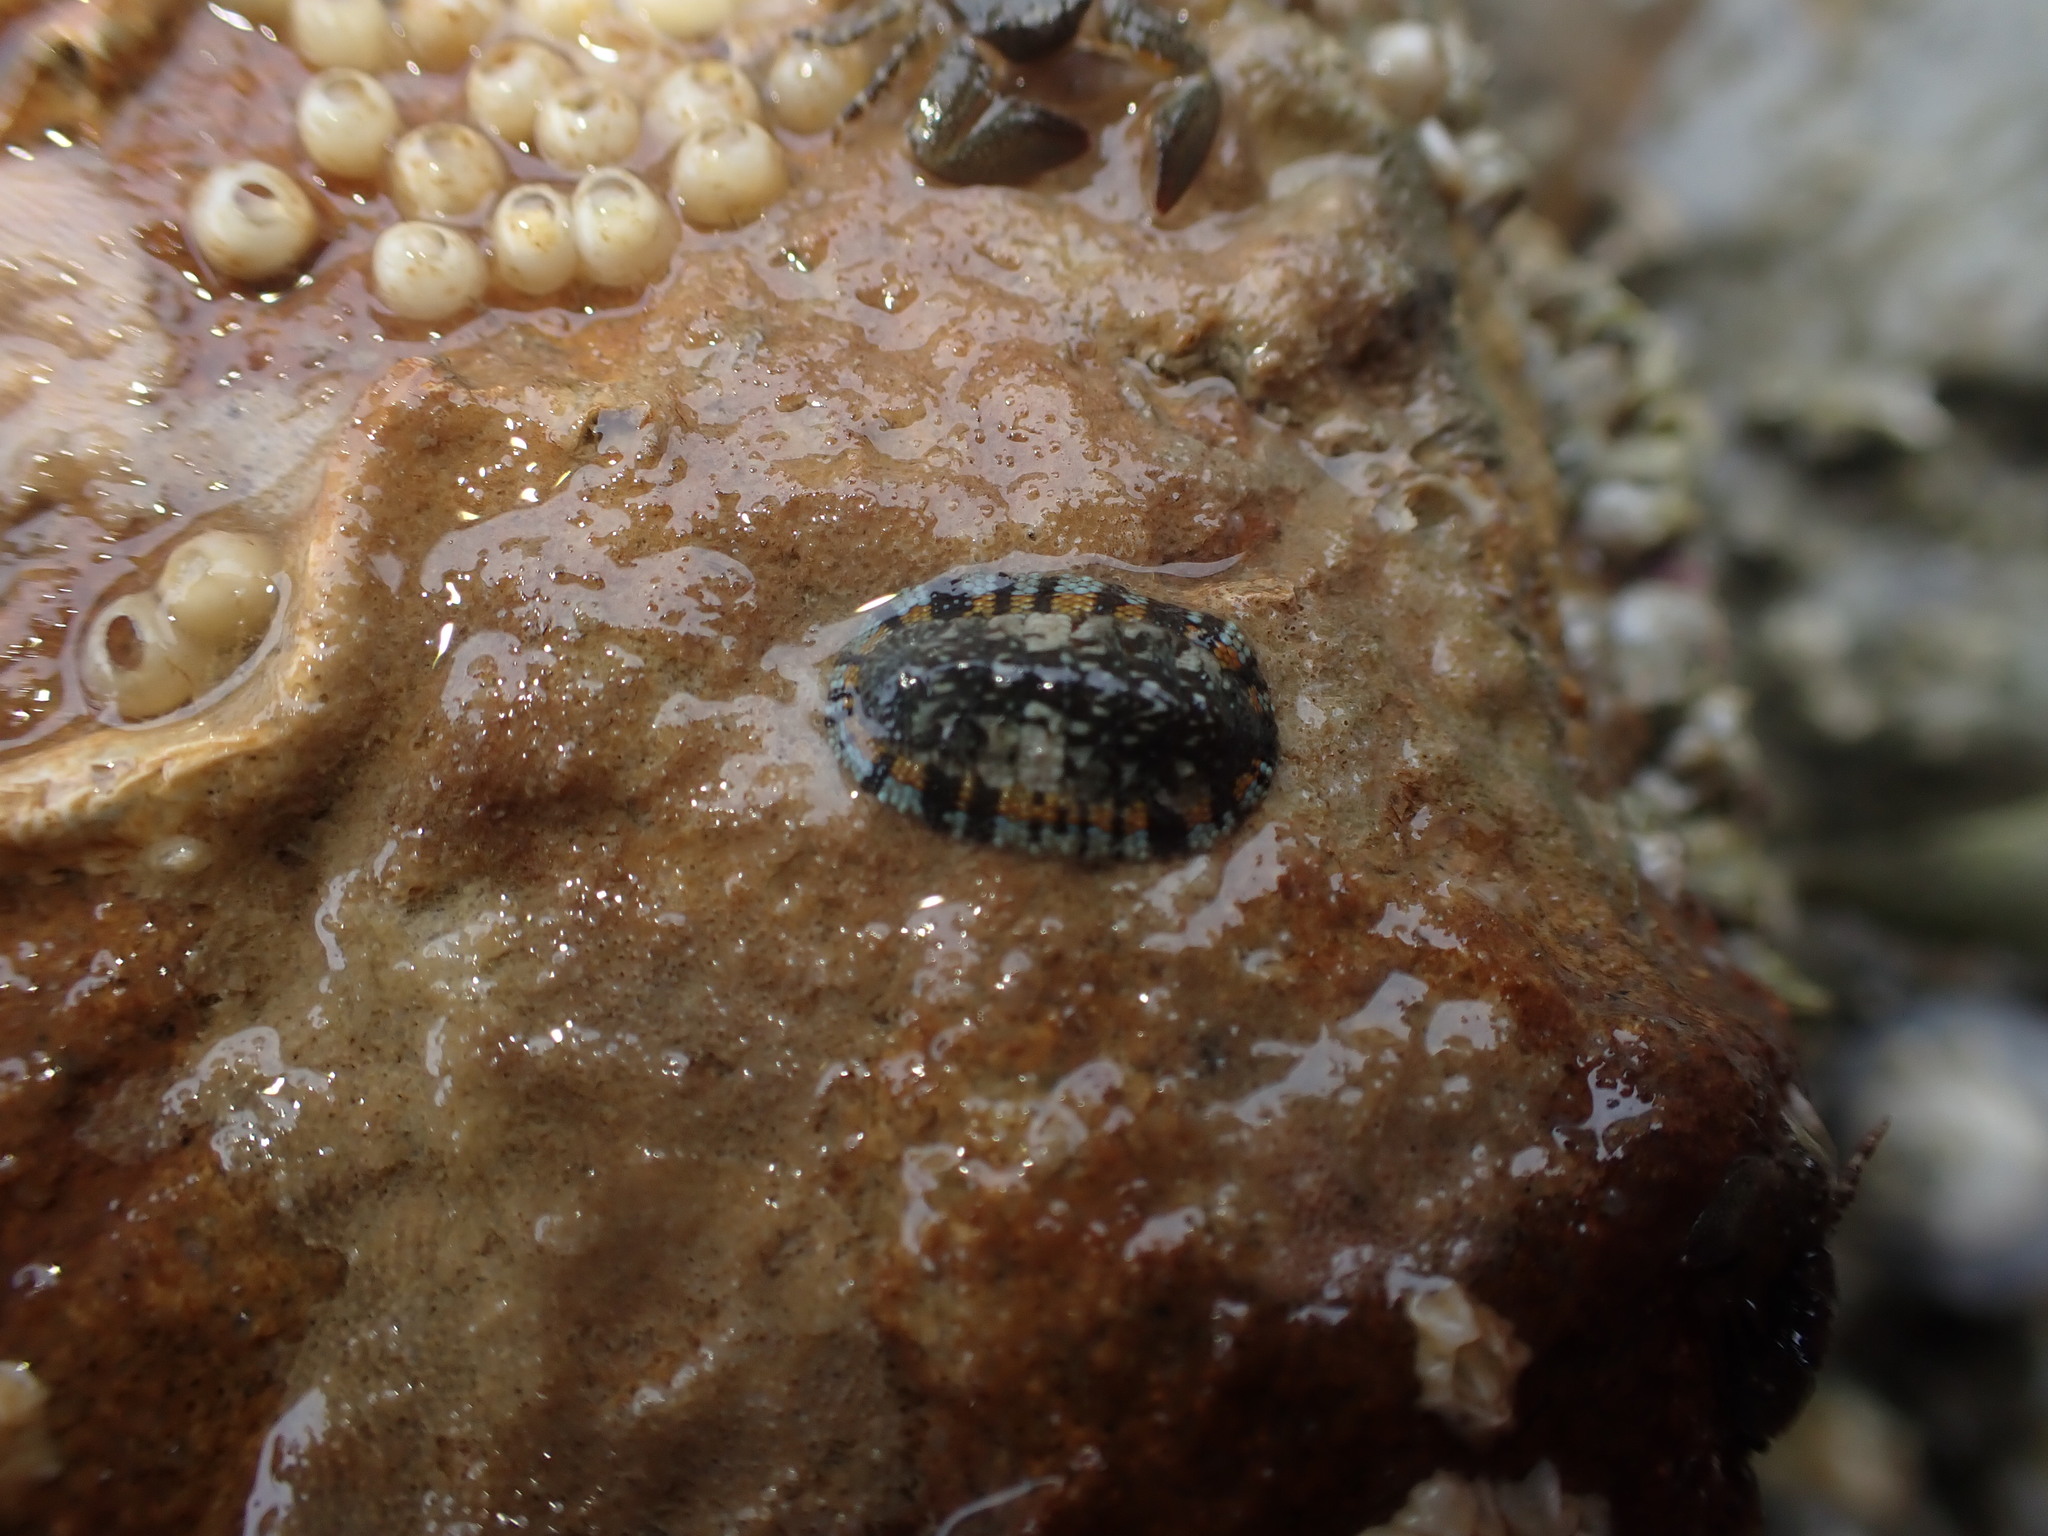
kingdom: Animalia
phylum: Mollusca
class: Polyplacophora
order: Chitonida
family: Chitonidae
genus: Sypharochiton
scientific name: Sypharochiton sinclairi
